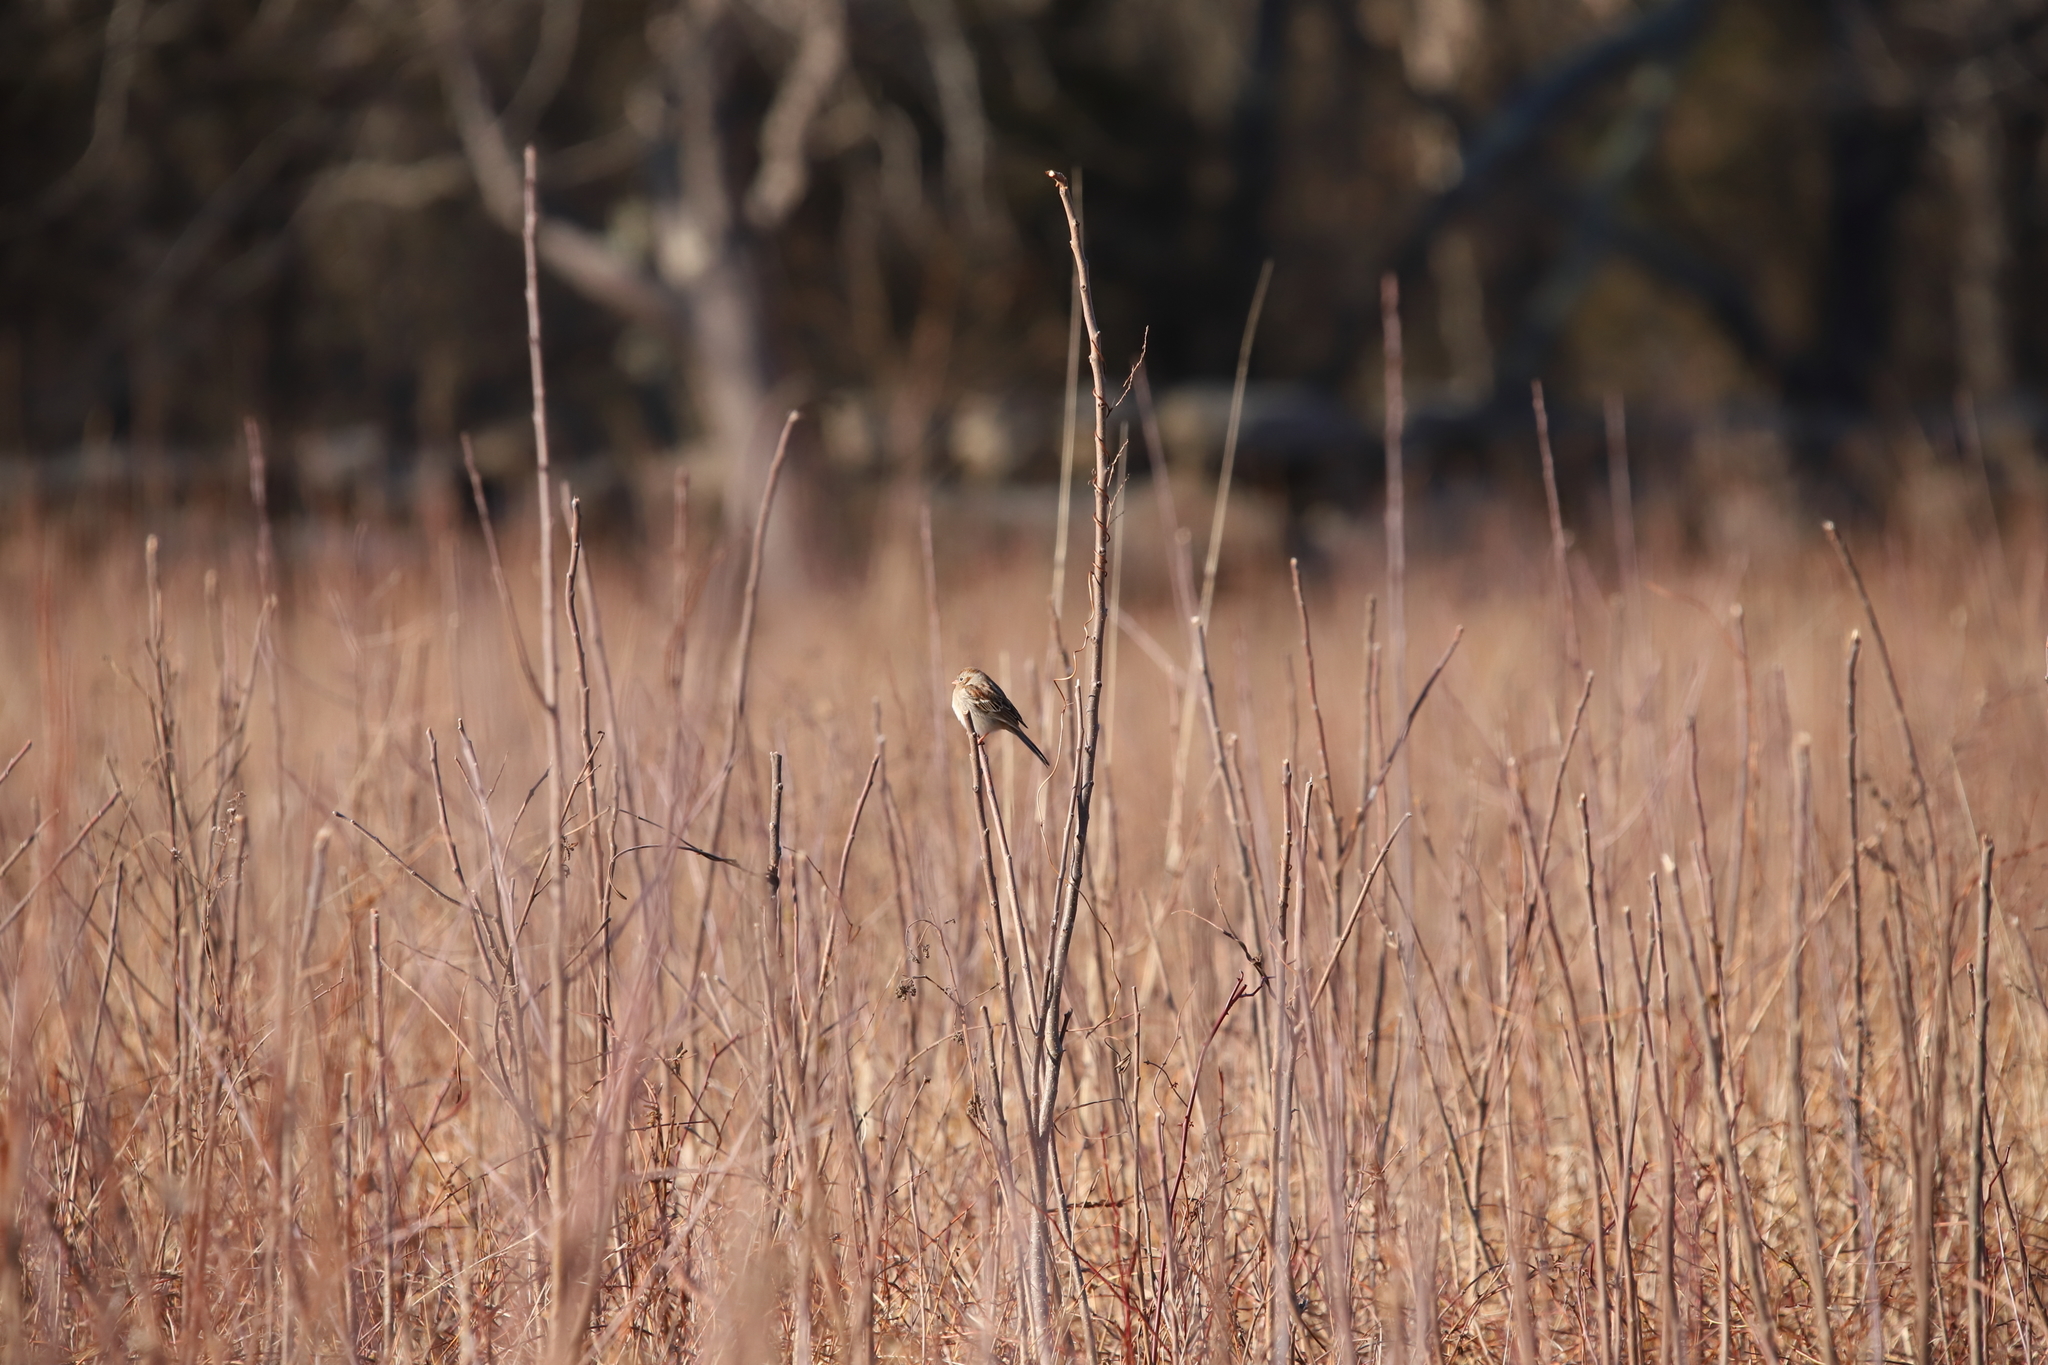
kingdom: Animalia
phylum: Chordata
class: Aves
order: Passeriformes
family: Passerellidae
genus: Spizella
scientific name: Spizella pusilla
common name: Field sparrow
